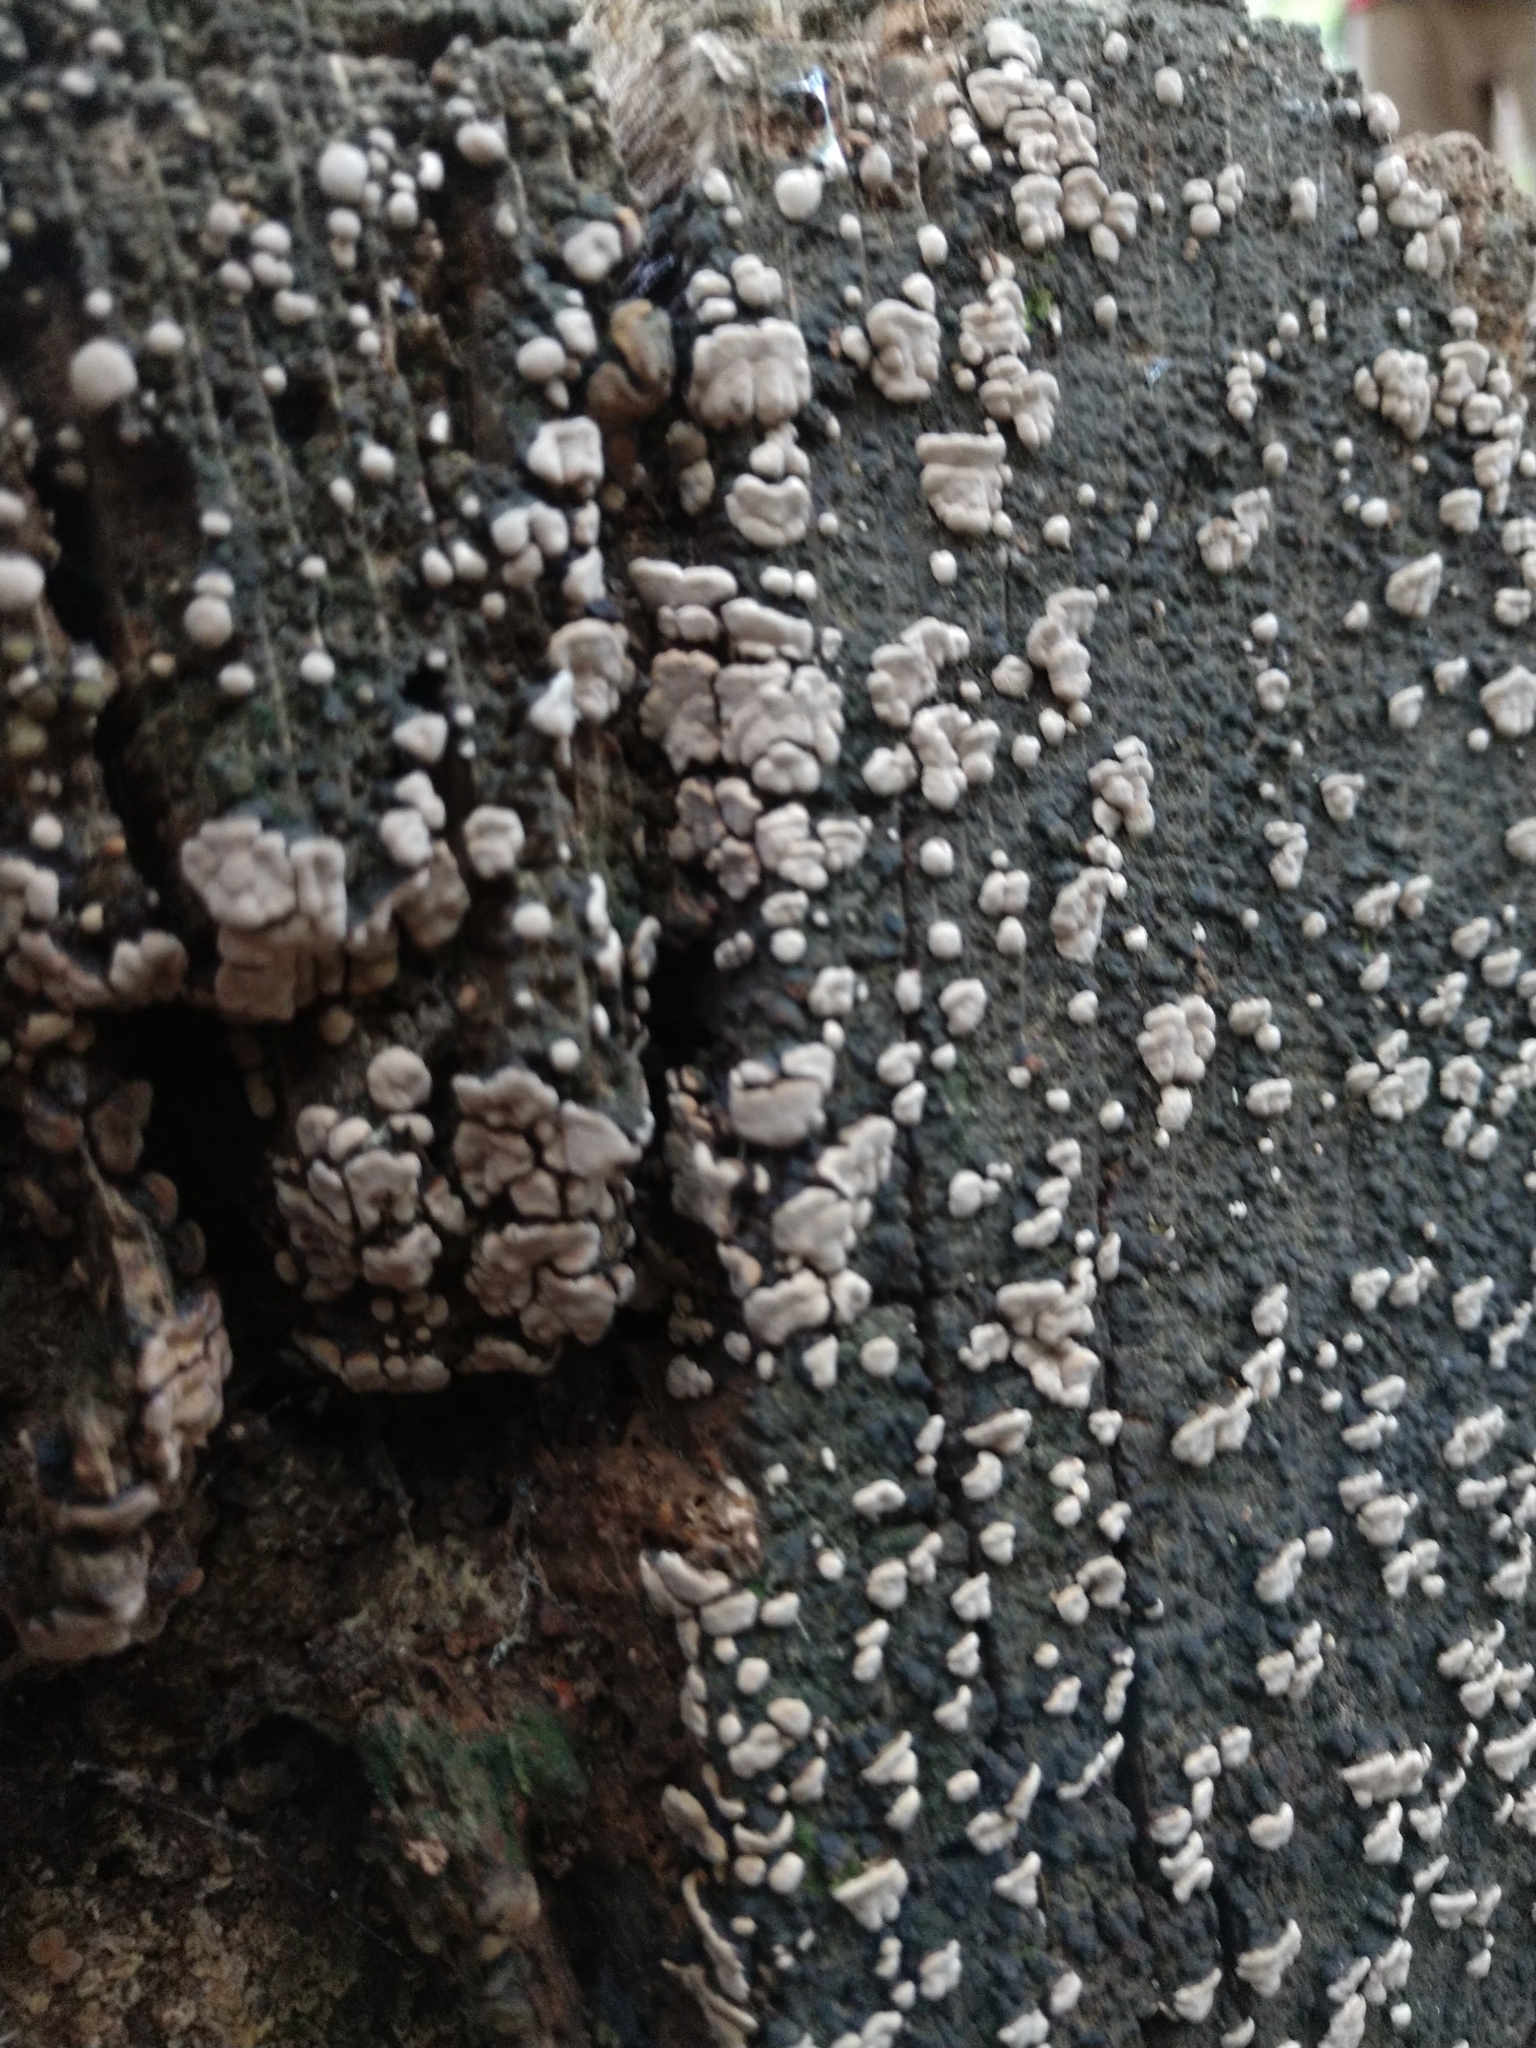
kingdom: Fungi
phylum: Basidiomycota
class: Agaricomycetes
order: Russulales
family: Stereaceae
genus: Xylobolus
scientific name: Xylobolus frustulatus
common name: Ceramic parchment
